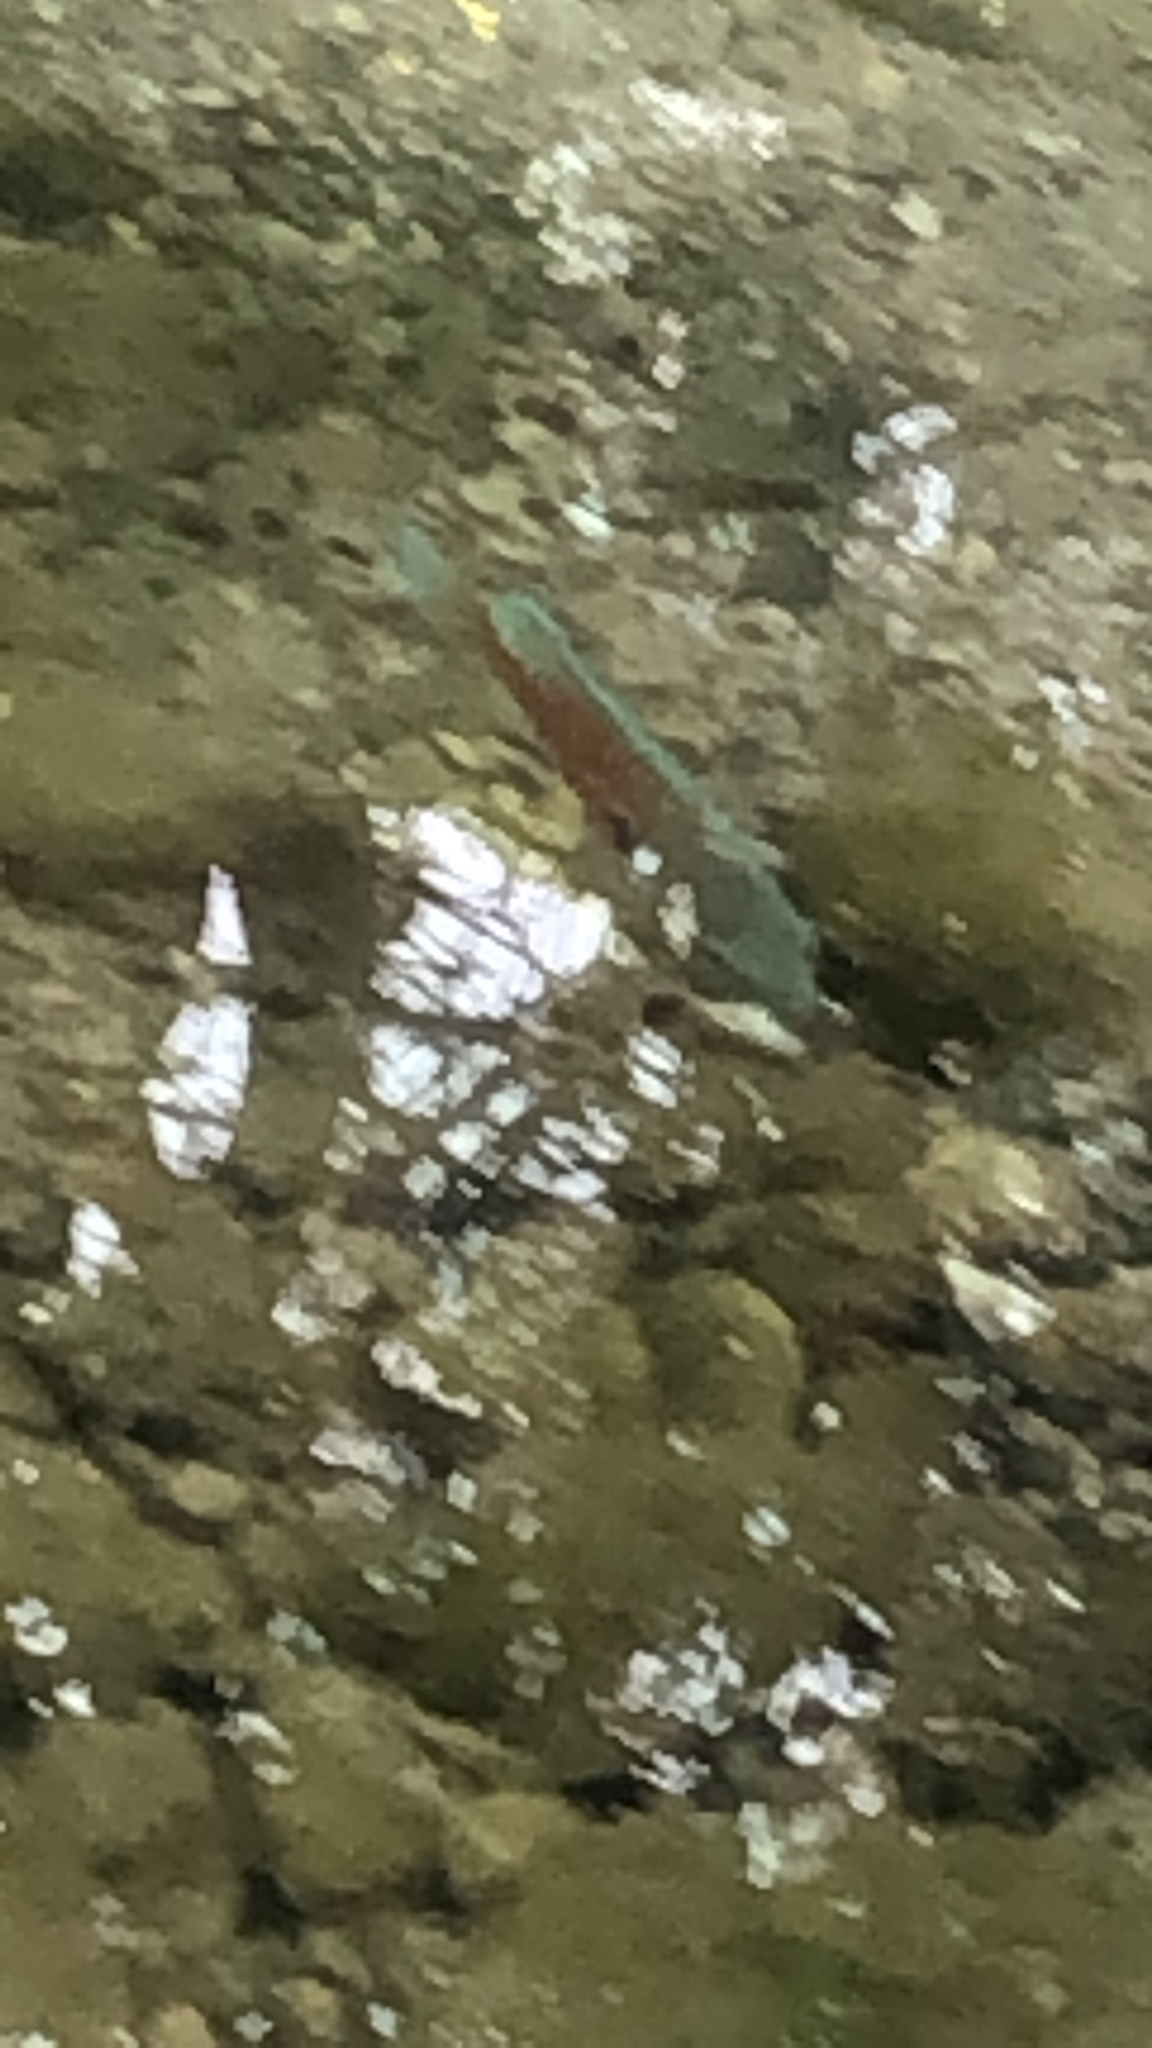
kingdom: Animalia
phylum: Chordata
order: Perciformes
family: Centrarchidae
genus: Lepomis
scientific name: Lepomis megalotis
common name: Longear sunfish
